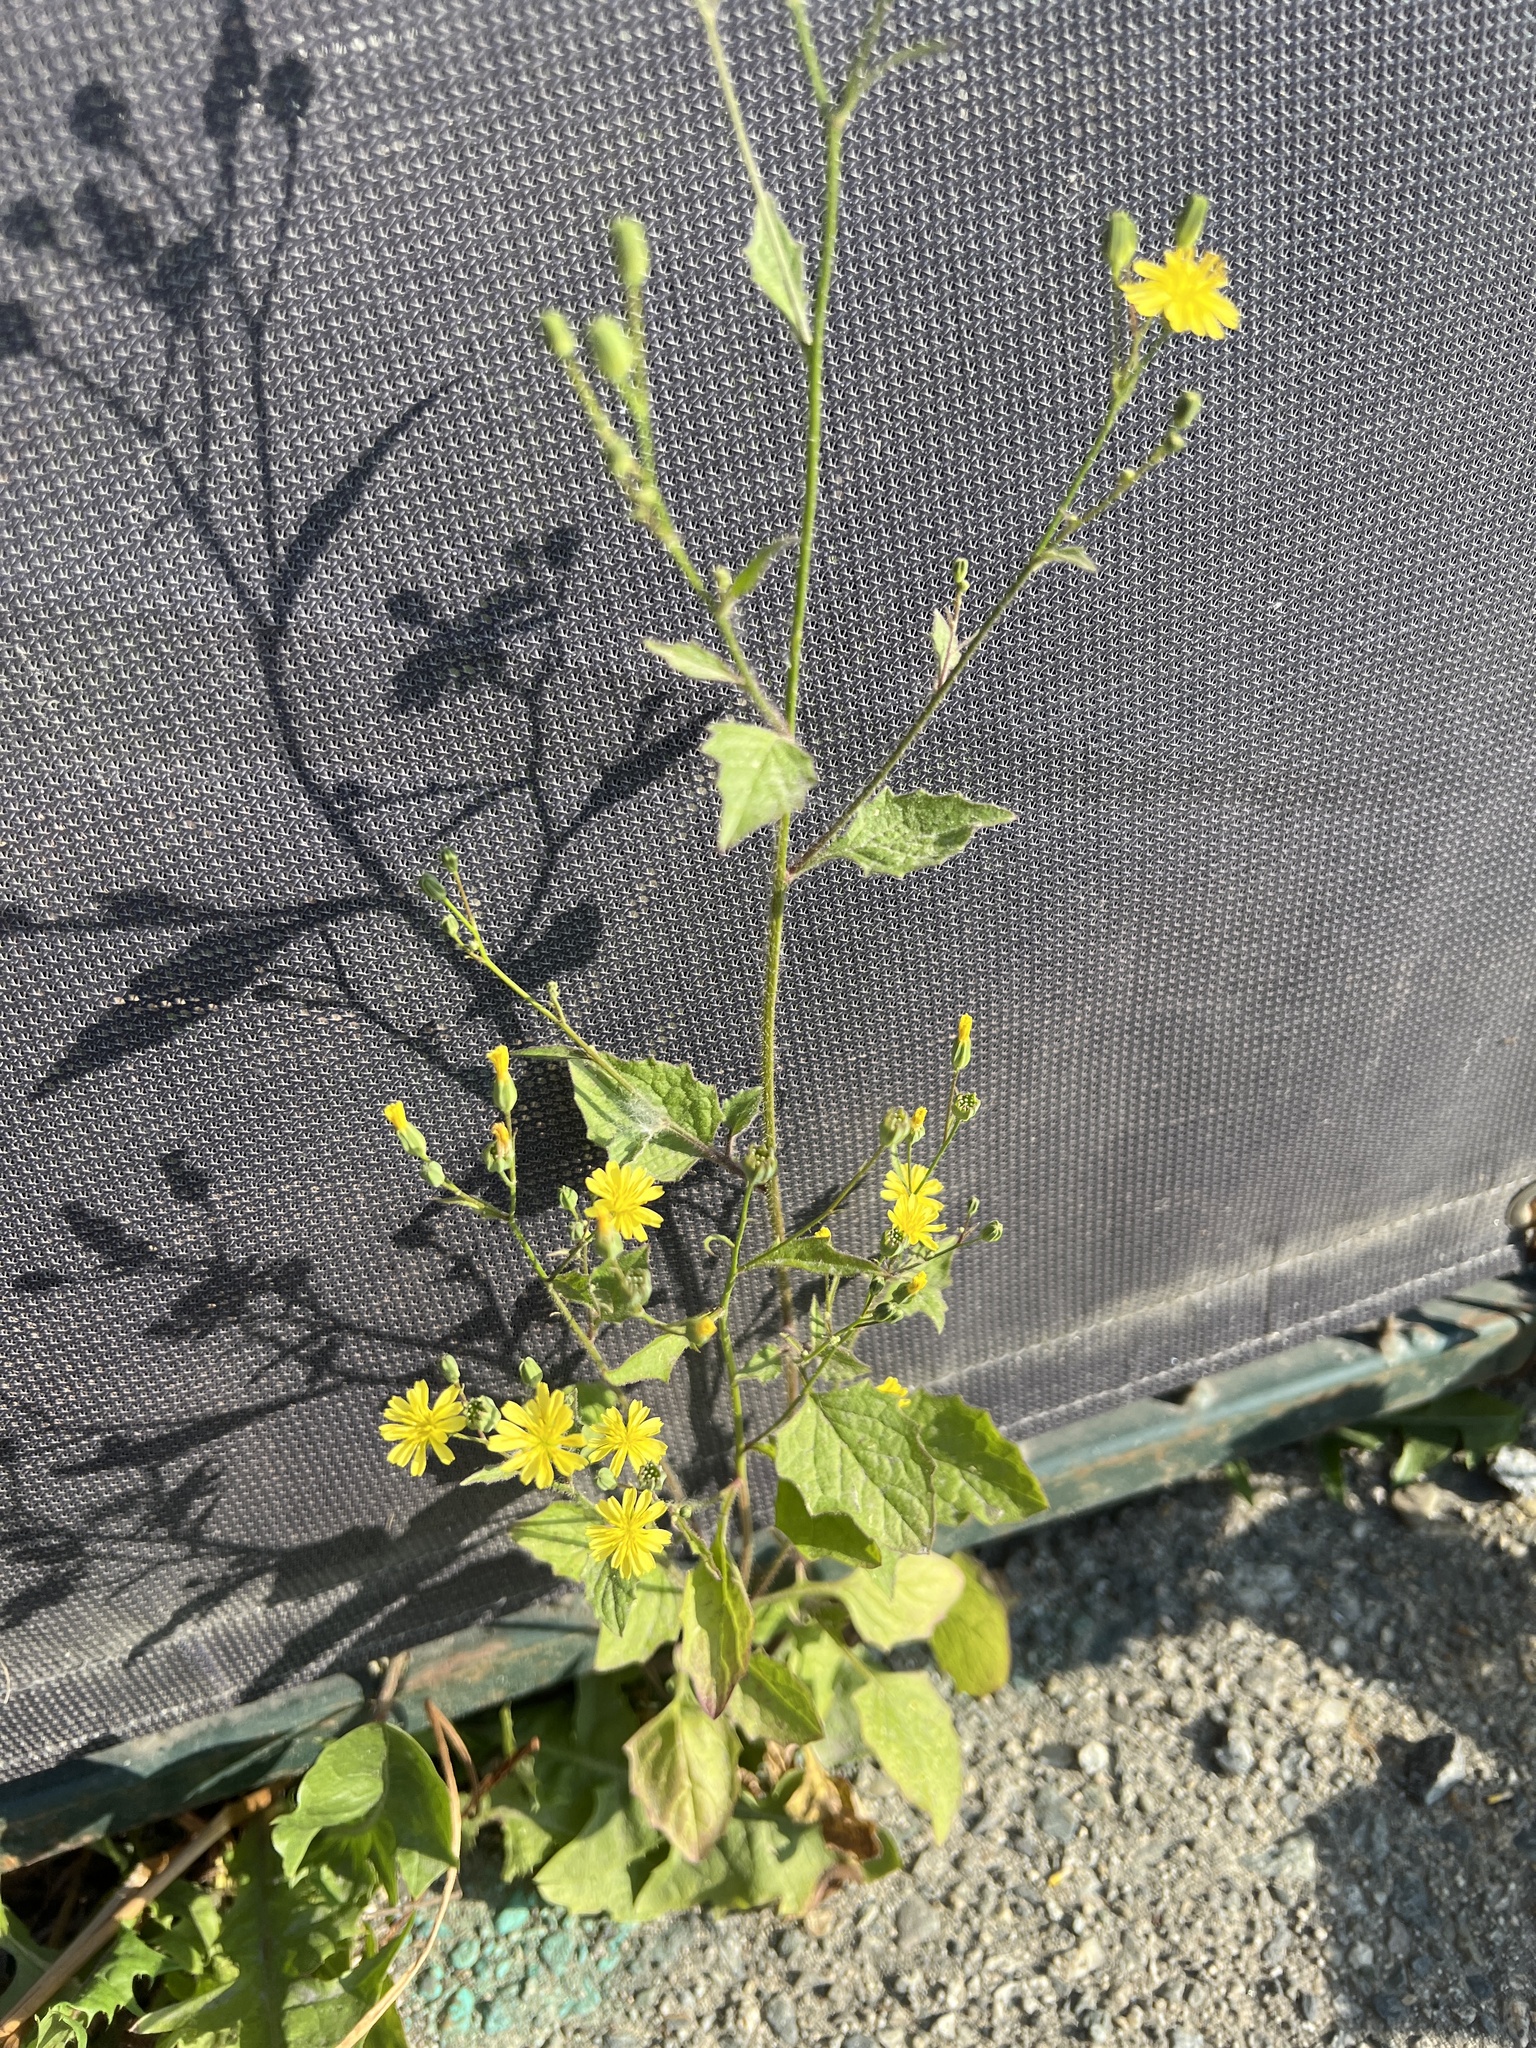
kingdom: Plantae
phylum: Tracheophyta
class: Magnoliopsida
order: Asterales
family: Asteraceae
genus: Lapsana
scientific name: Lapsana communis
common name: Nipplewort
